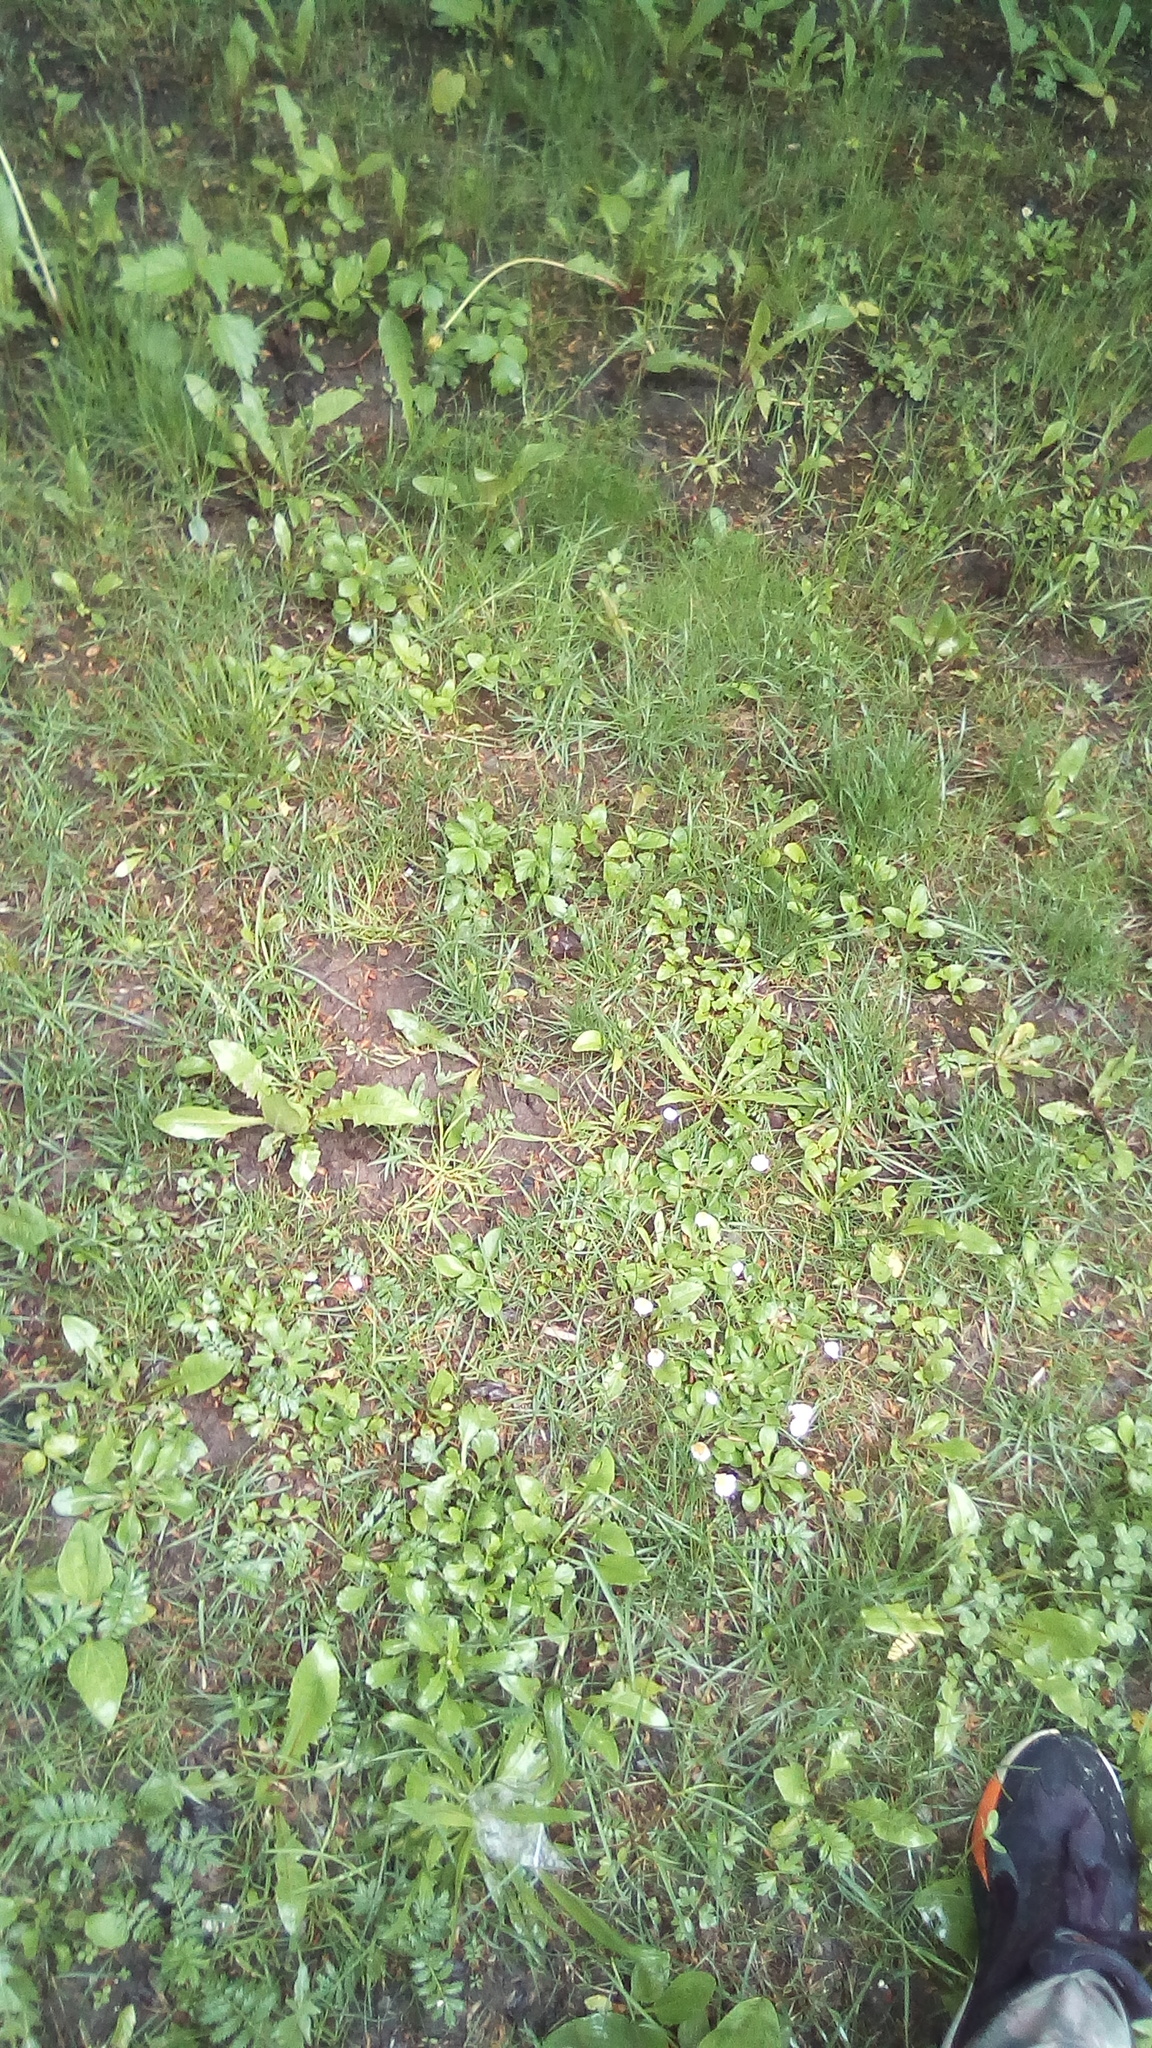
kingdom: Plantae
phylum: Tracheophyta
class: Magnoliopsida
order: Asterales
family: Asteraceae
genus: Bellis
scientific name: Bellis perennis
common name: Lawndaisy
